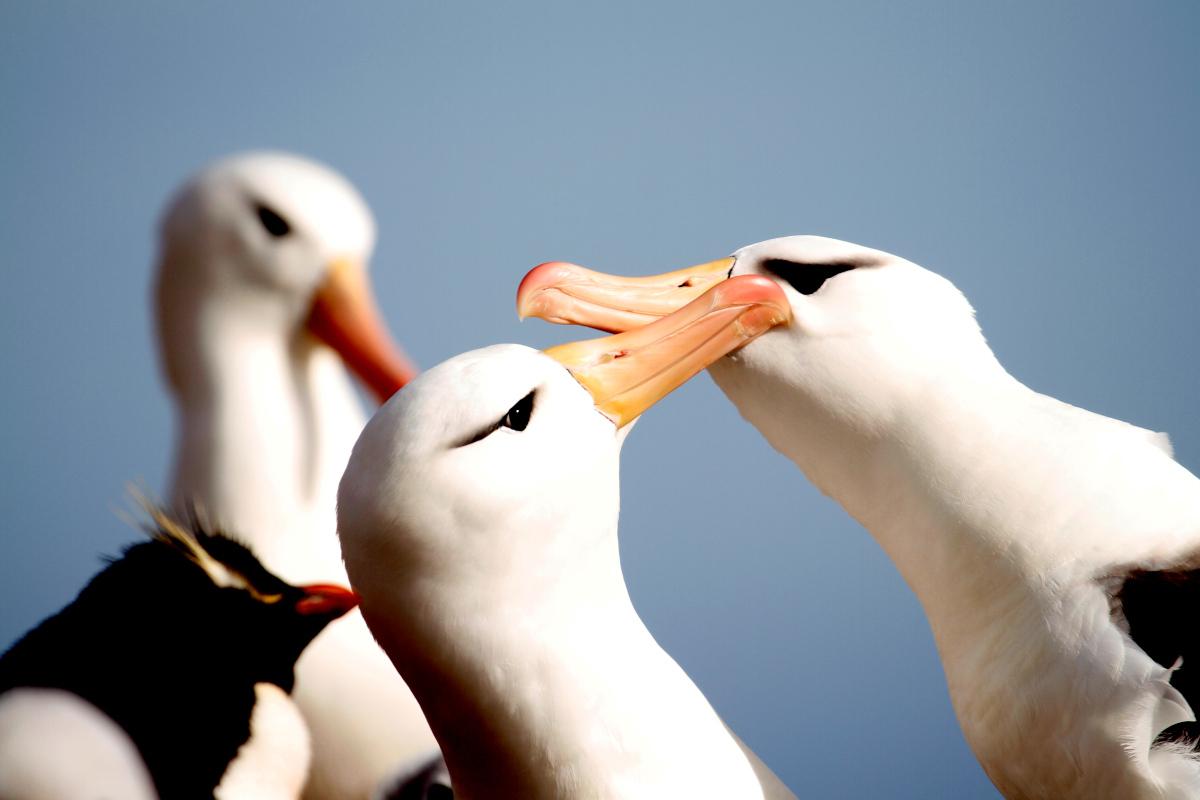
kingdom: Animalia
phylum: Chordata
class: Aves
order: Procellariiformes
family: Diomedeidae
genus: Thalassarche
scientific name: Thalassarche melanophris
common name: Black-browed albatross
